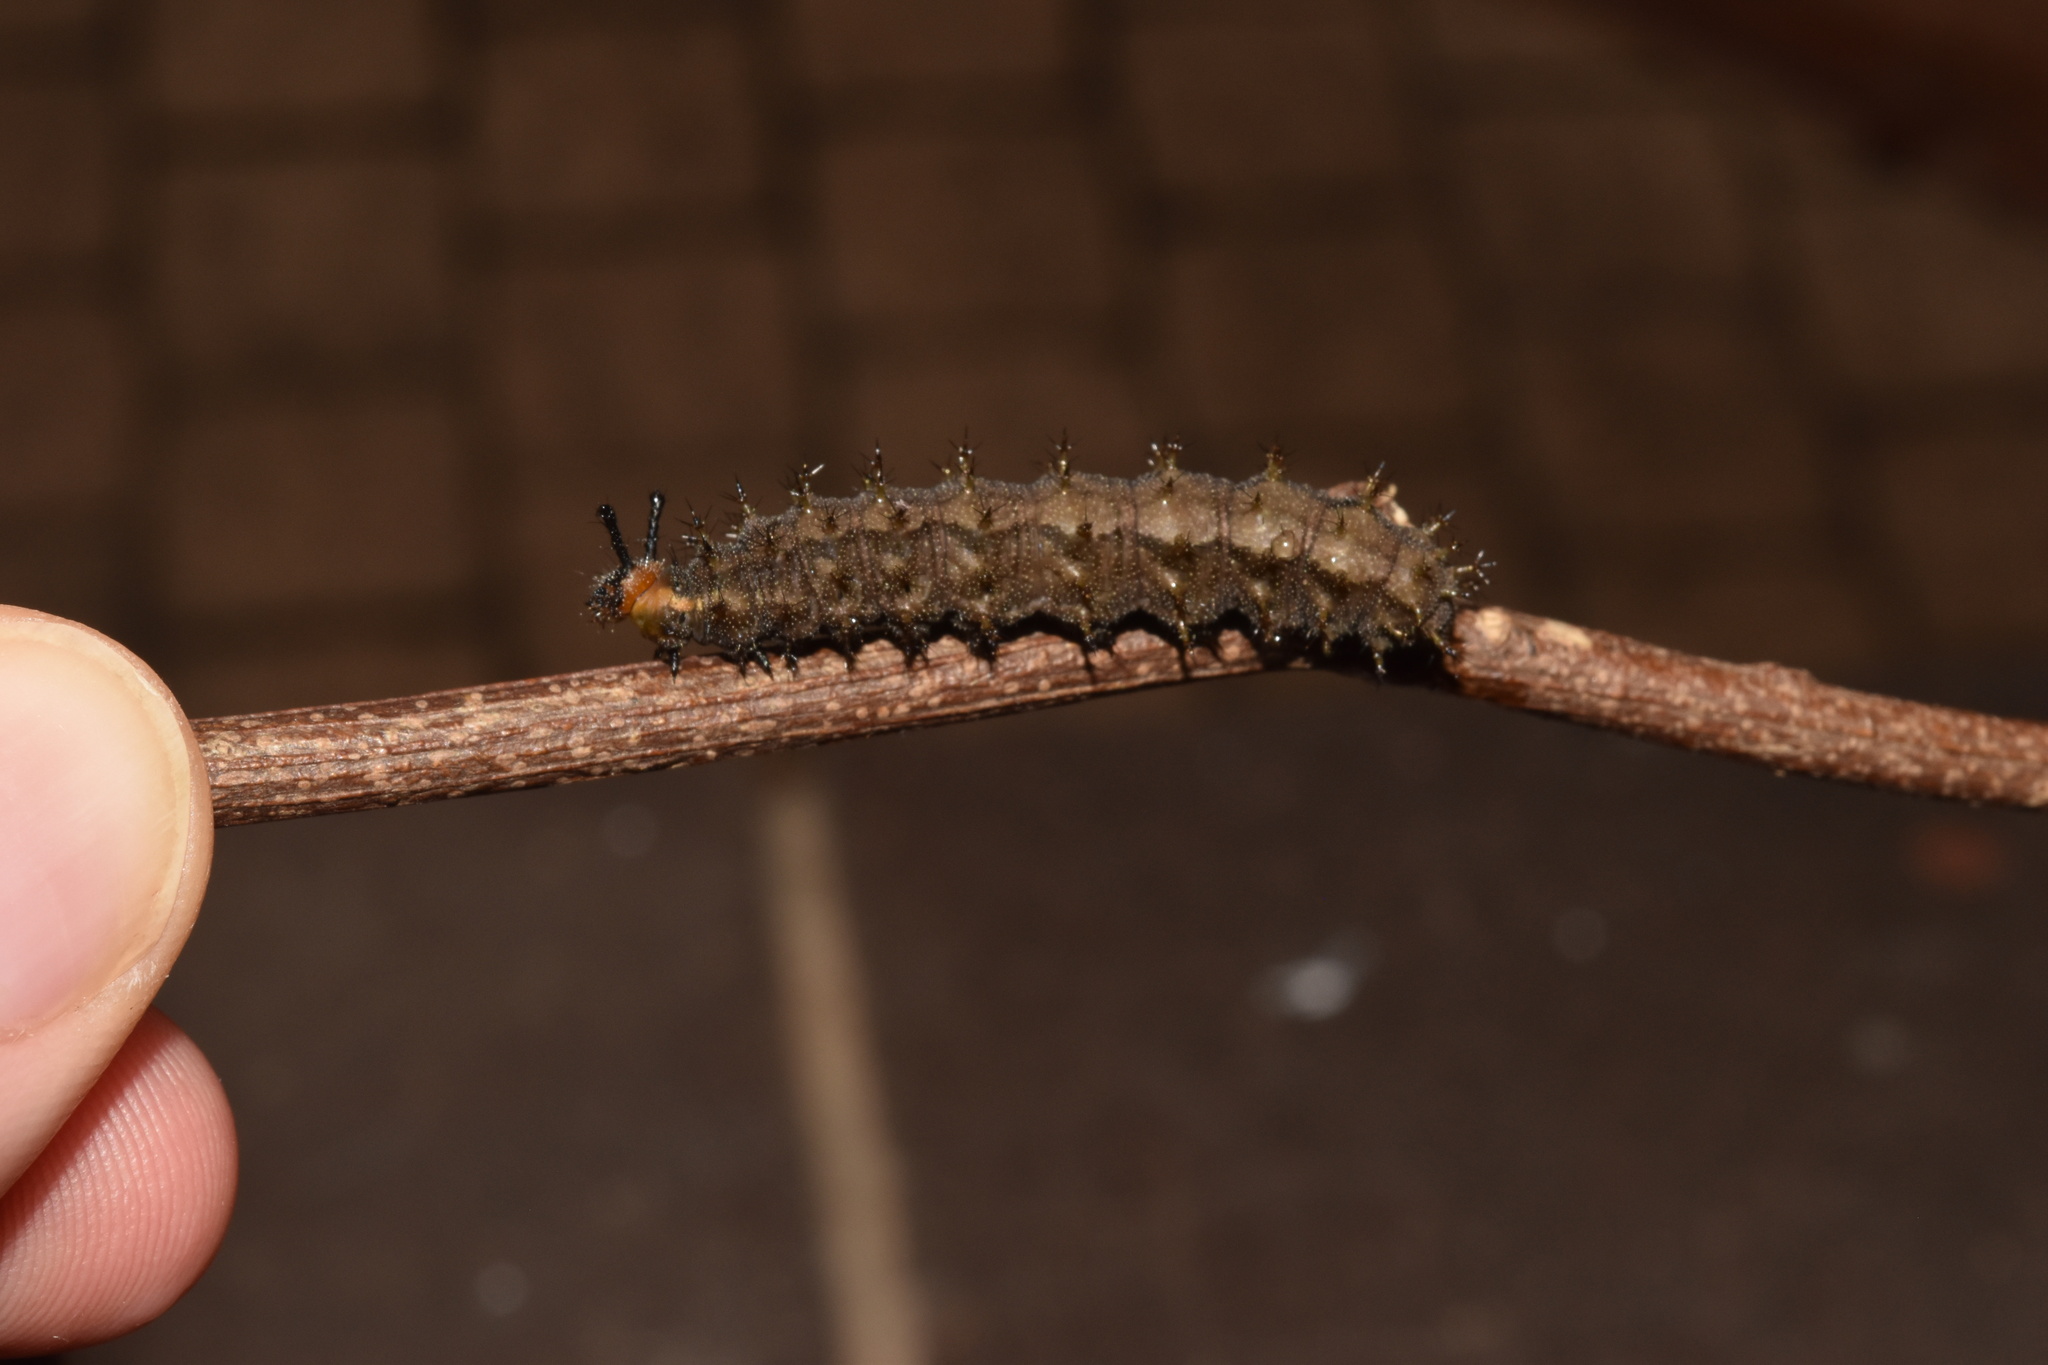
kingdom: Animalia
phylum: Arthropoda
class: Insecta
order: Lepidoptera
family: Nymphalidae
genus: Junonia
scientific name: Junonia natalica
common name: Brown pansy
